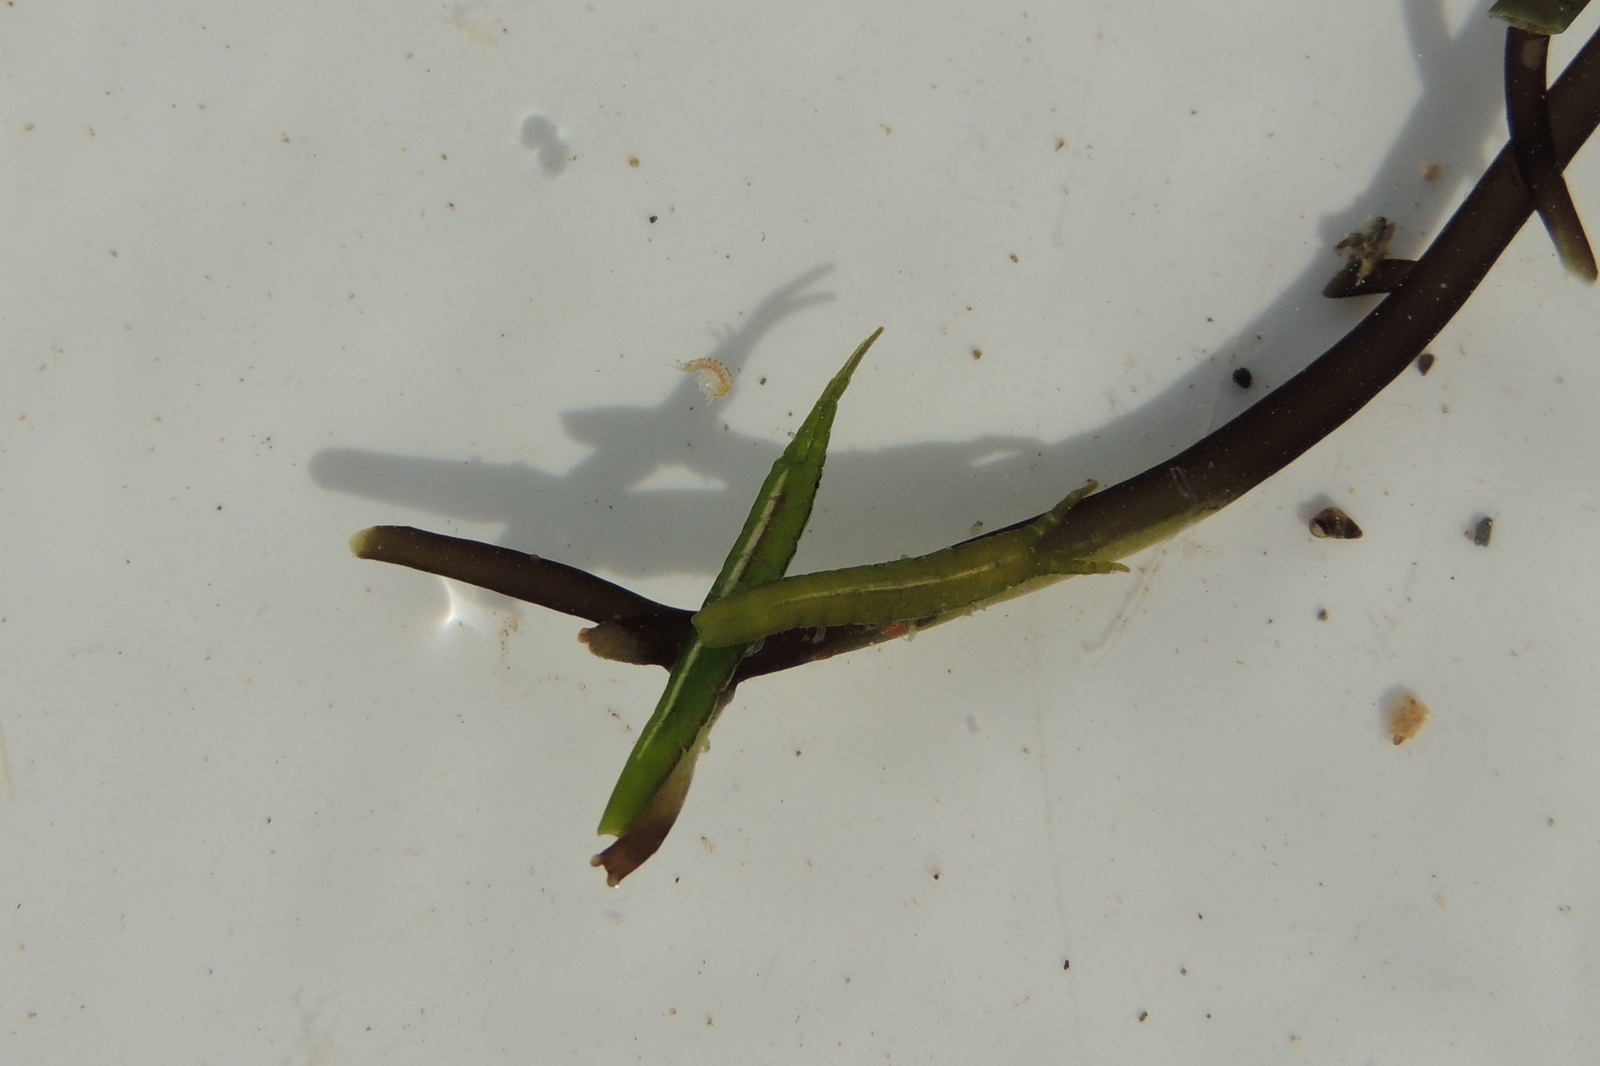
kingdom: Animalia
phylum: Arthropoda
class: Malacostraca
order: Isopoda
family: Idoteidae
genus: Pentidotea
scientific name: Pentidotea kirchanskii
